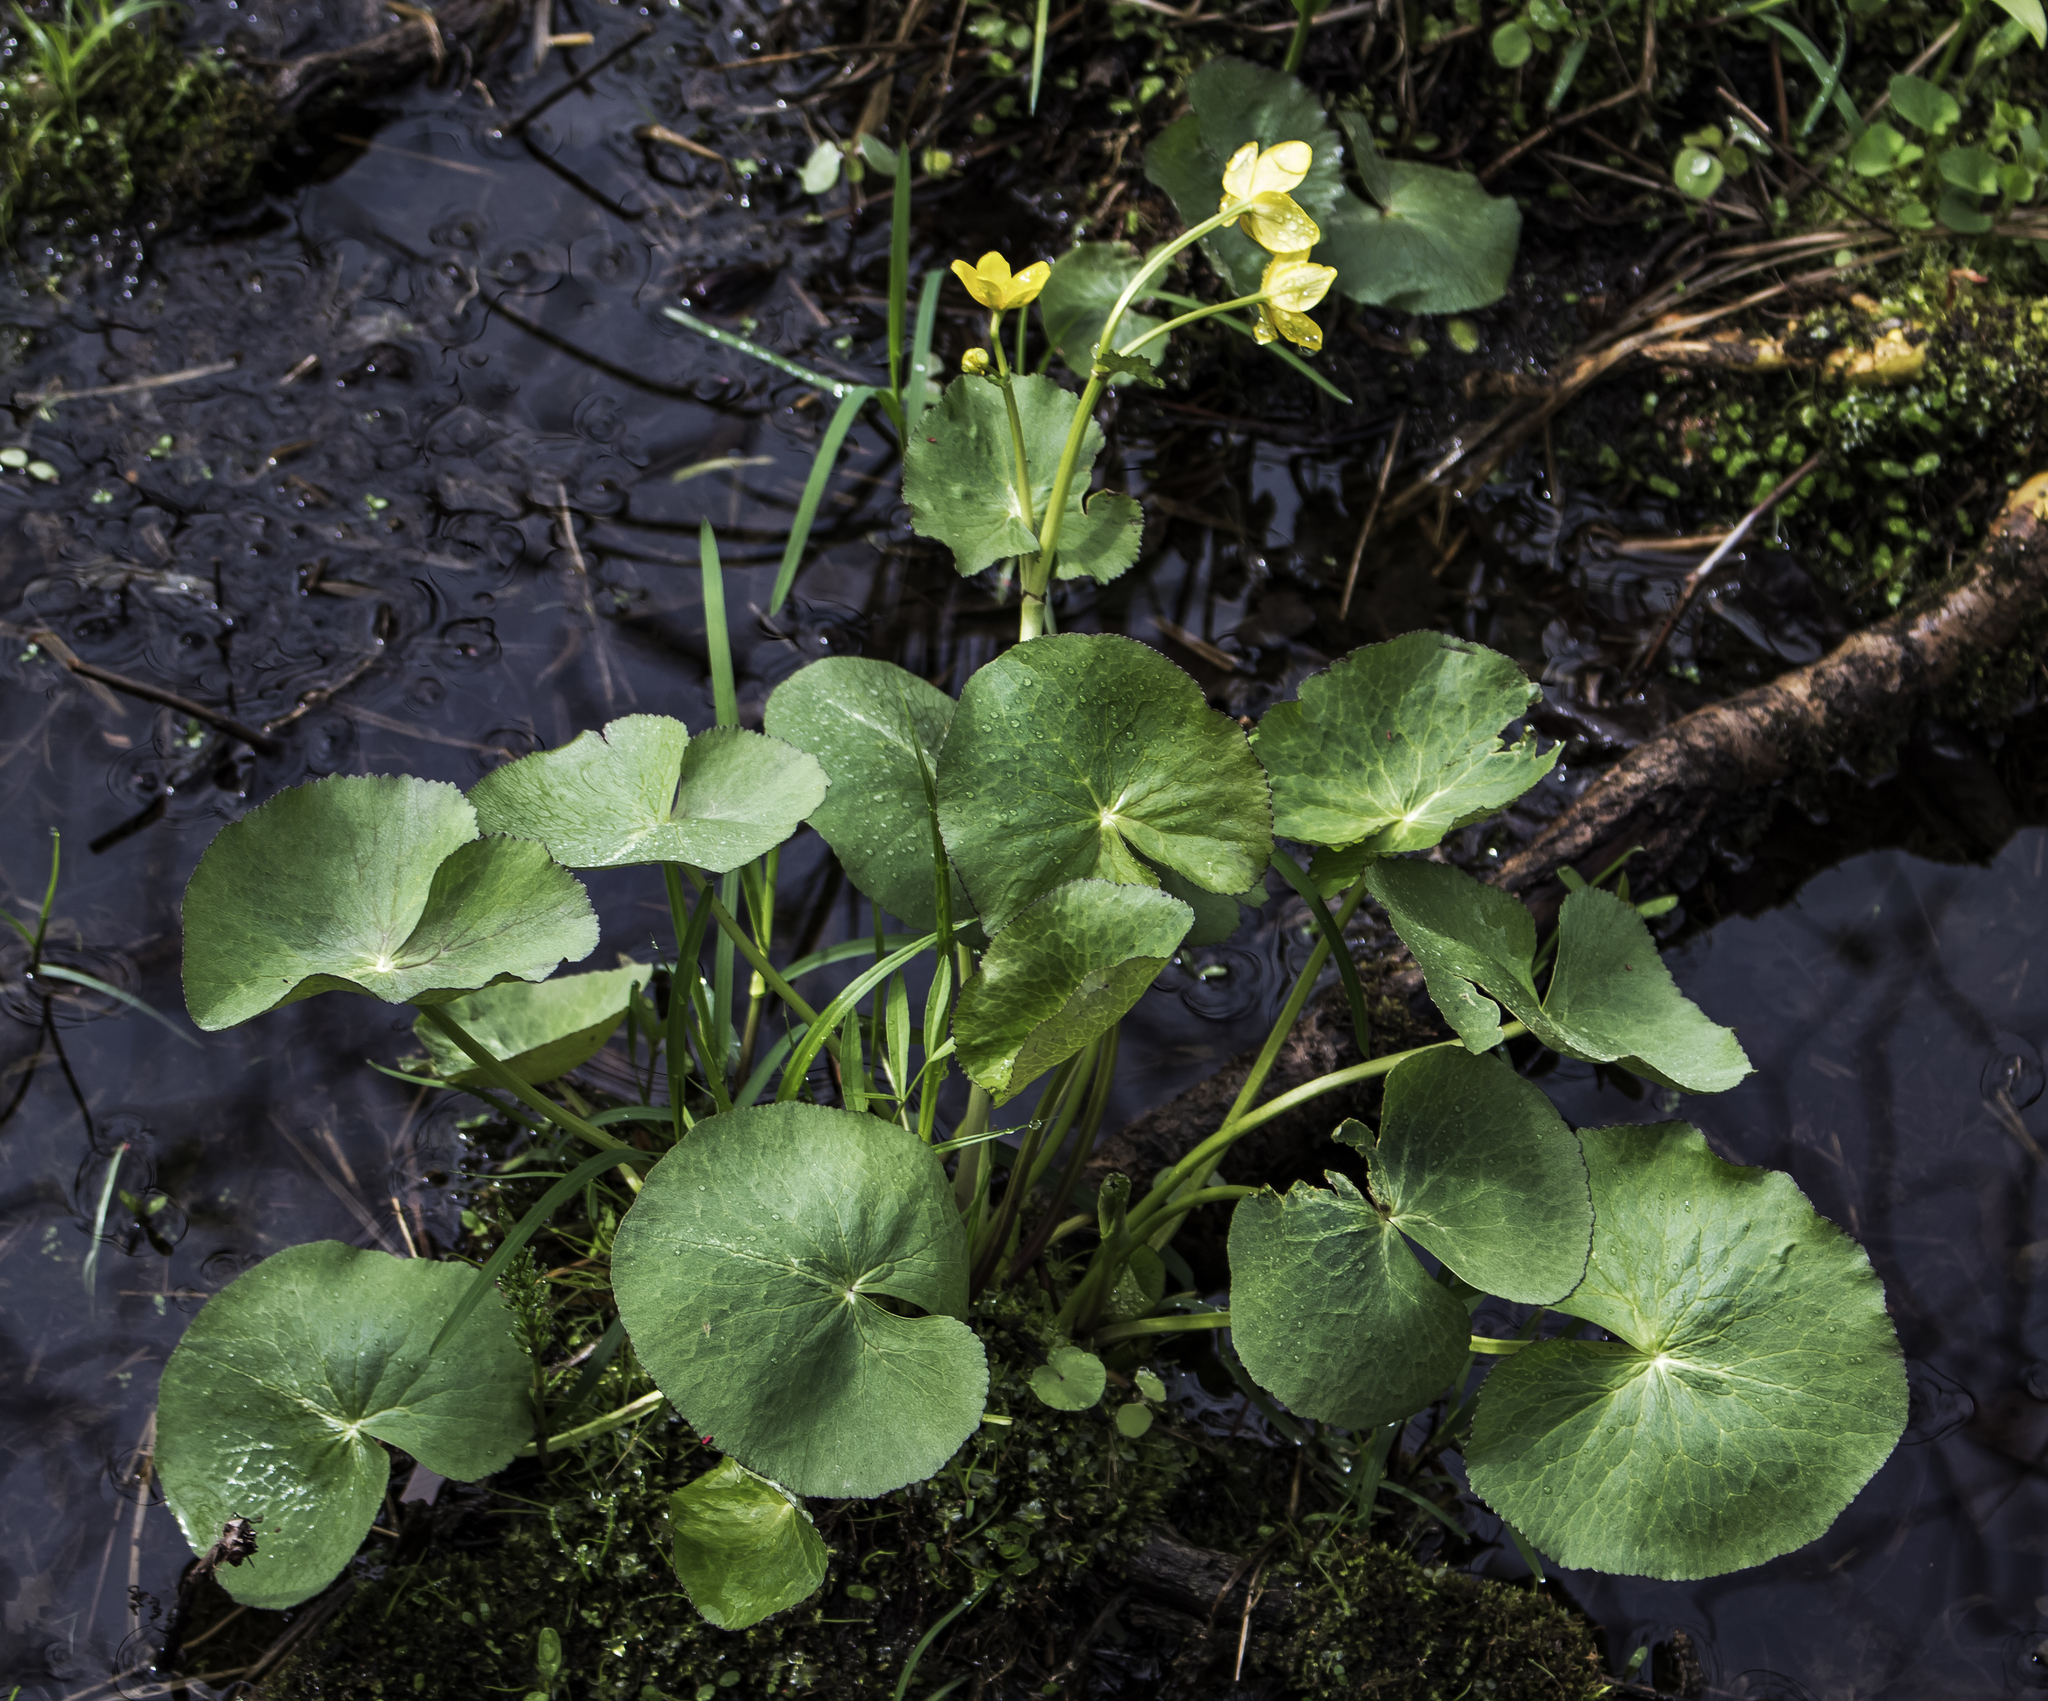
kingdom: Plantae
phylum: Tracheophyta
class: Magnoliopsida
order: Ranunculales
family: Ranunculaceae
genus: Caltha
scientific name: Caltha palustris
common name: Marsh marigold
